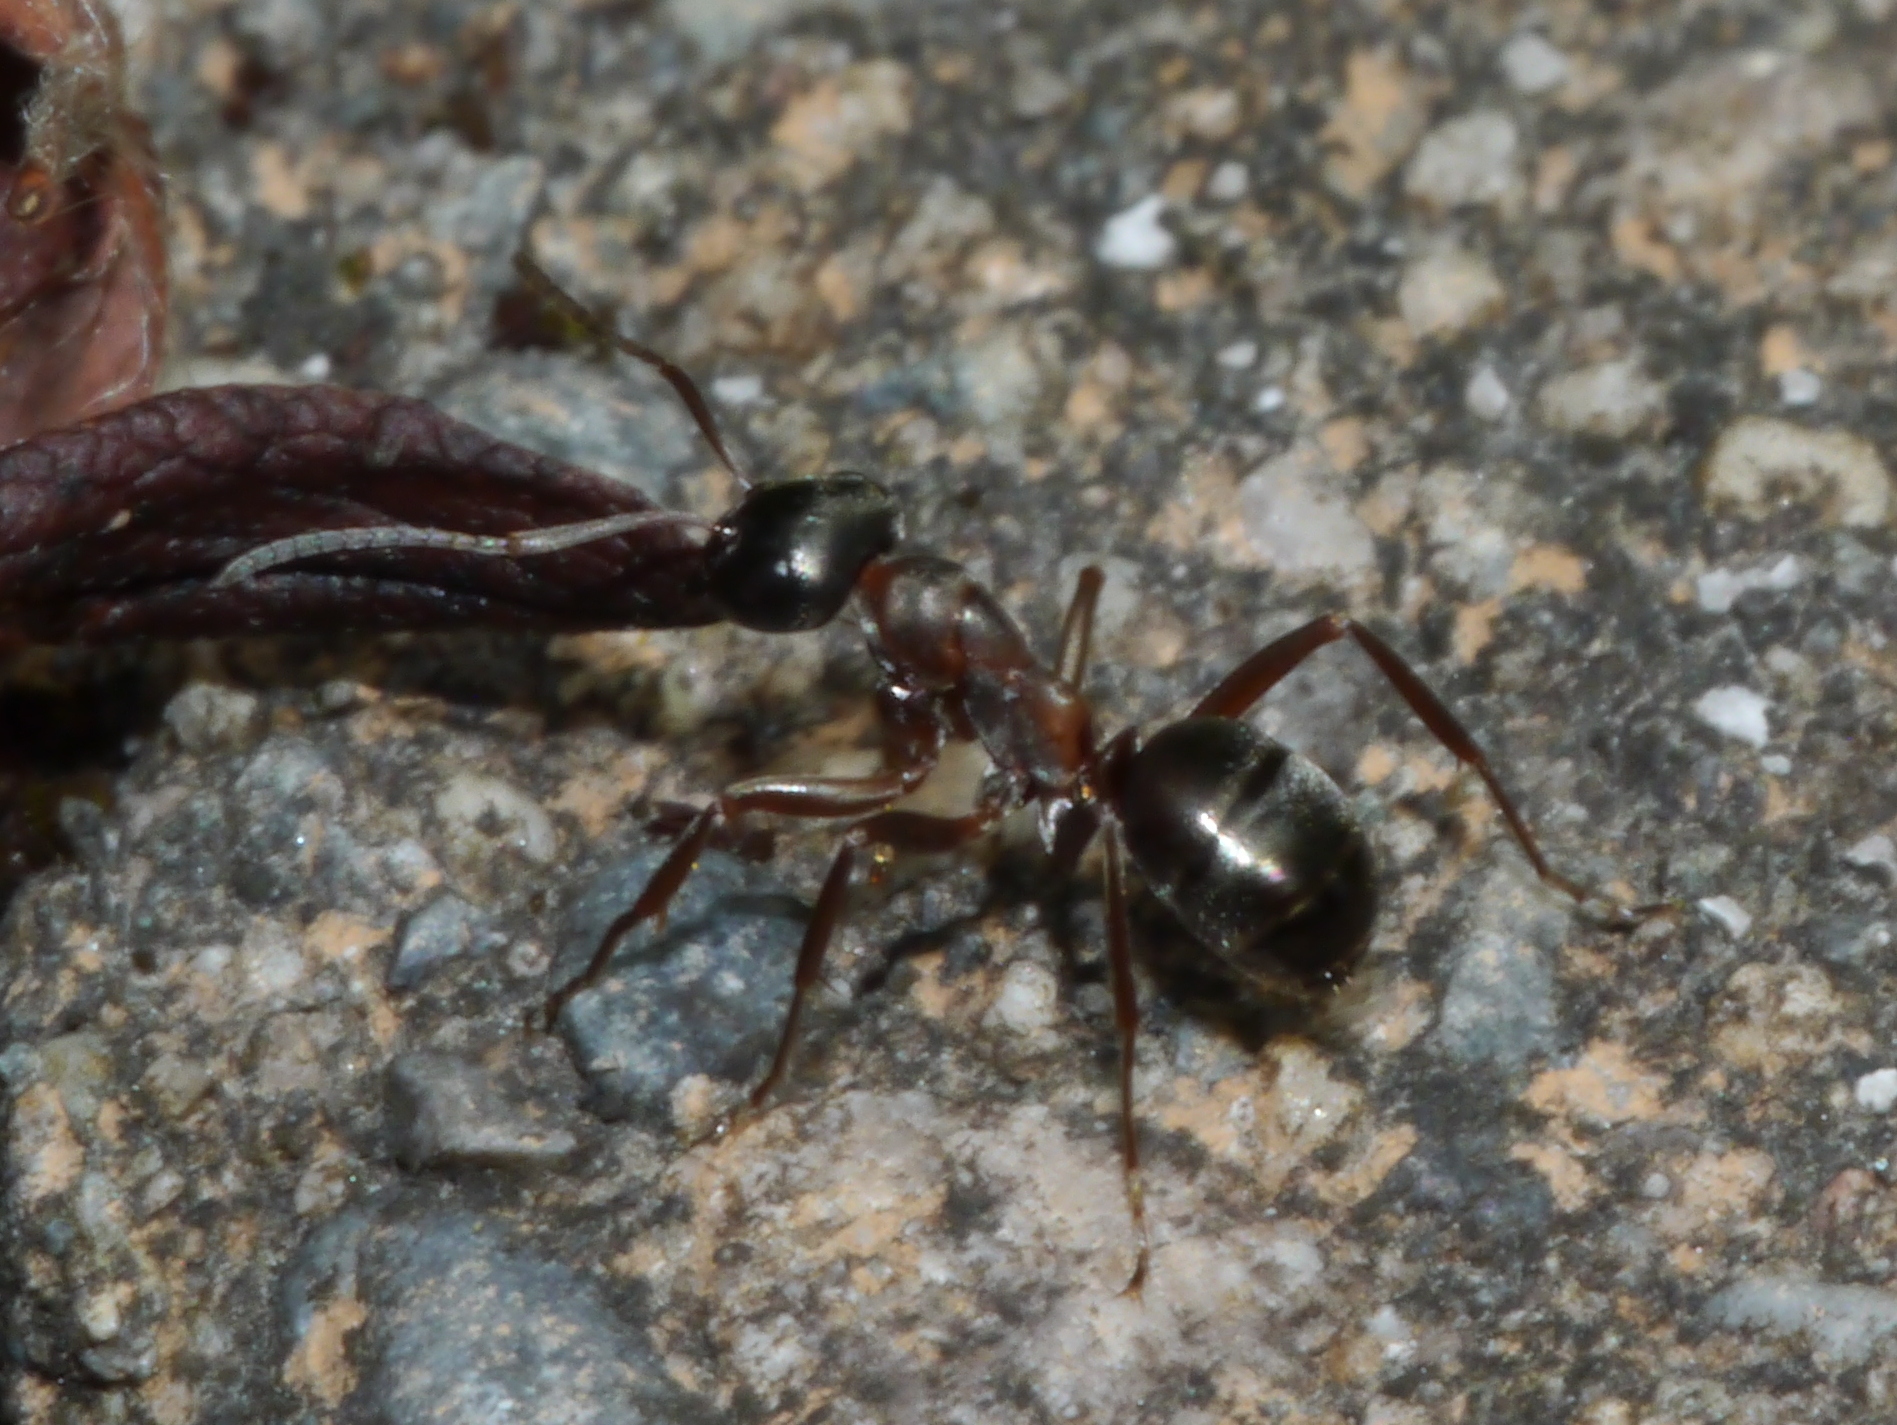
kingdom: Animalia
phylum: Arthropoda
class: Insecta
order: Hymenoptera
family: Formicidae
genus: Formica
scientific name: Formica neorufibarbis
